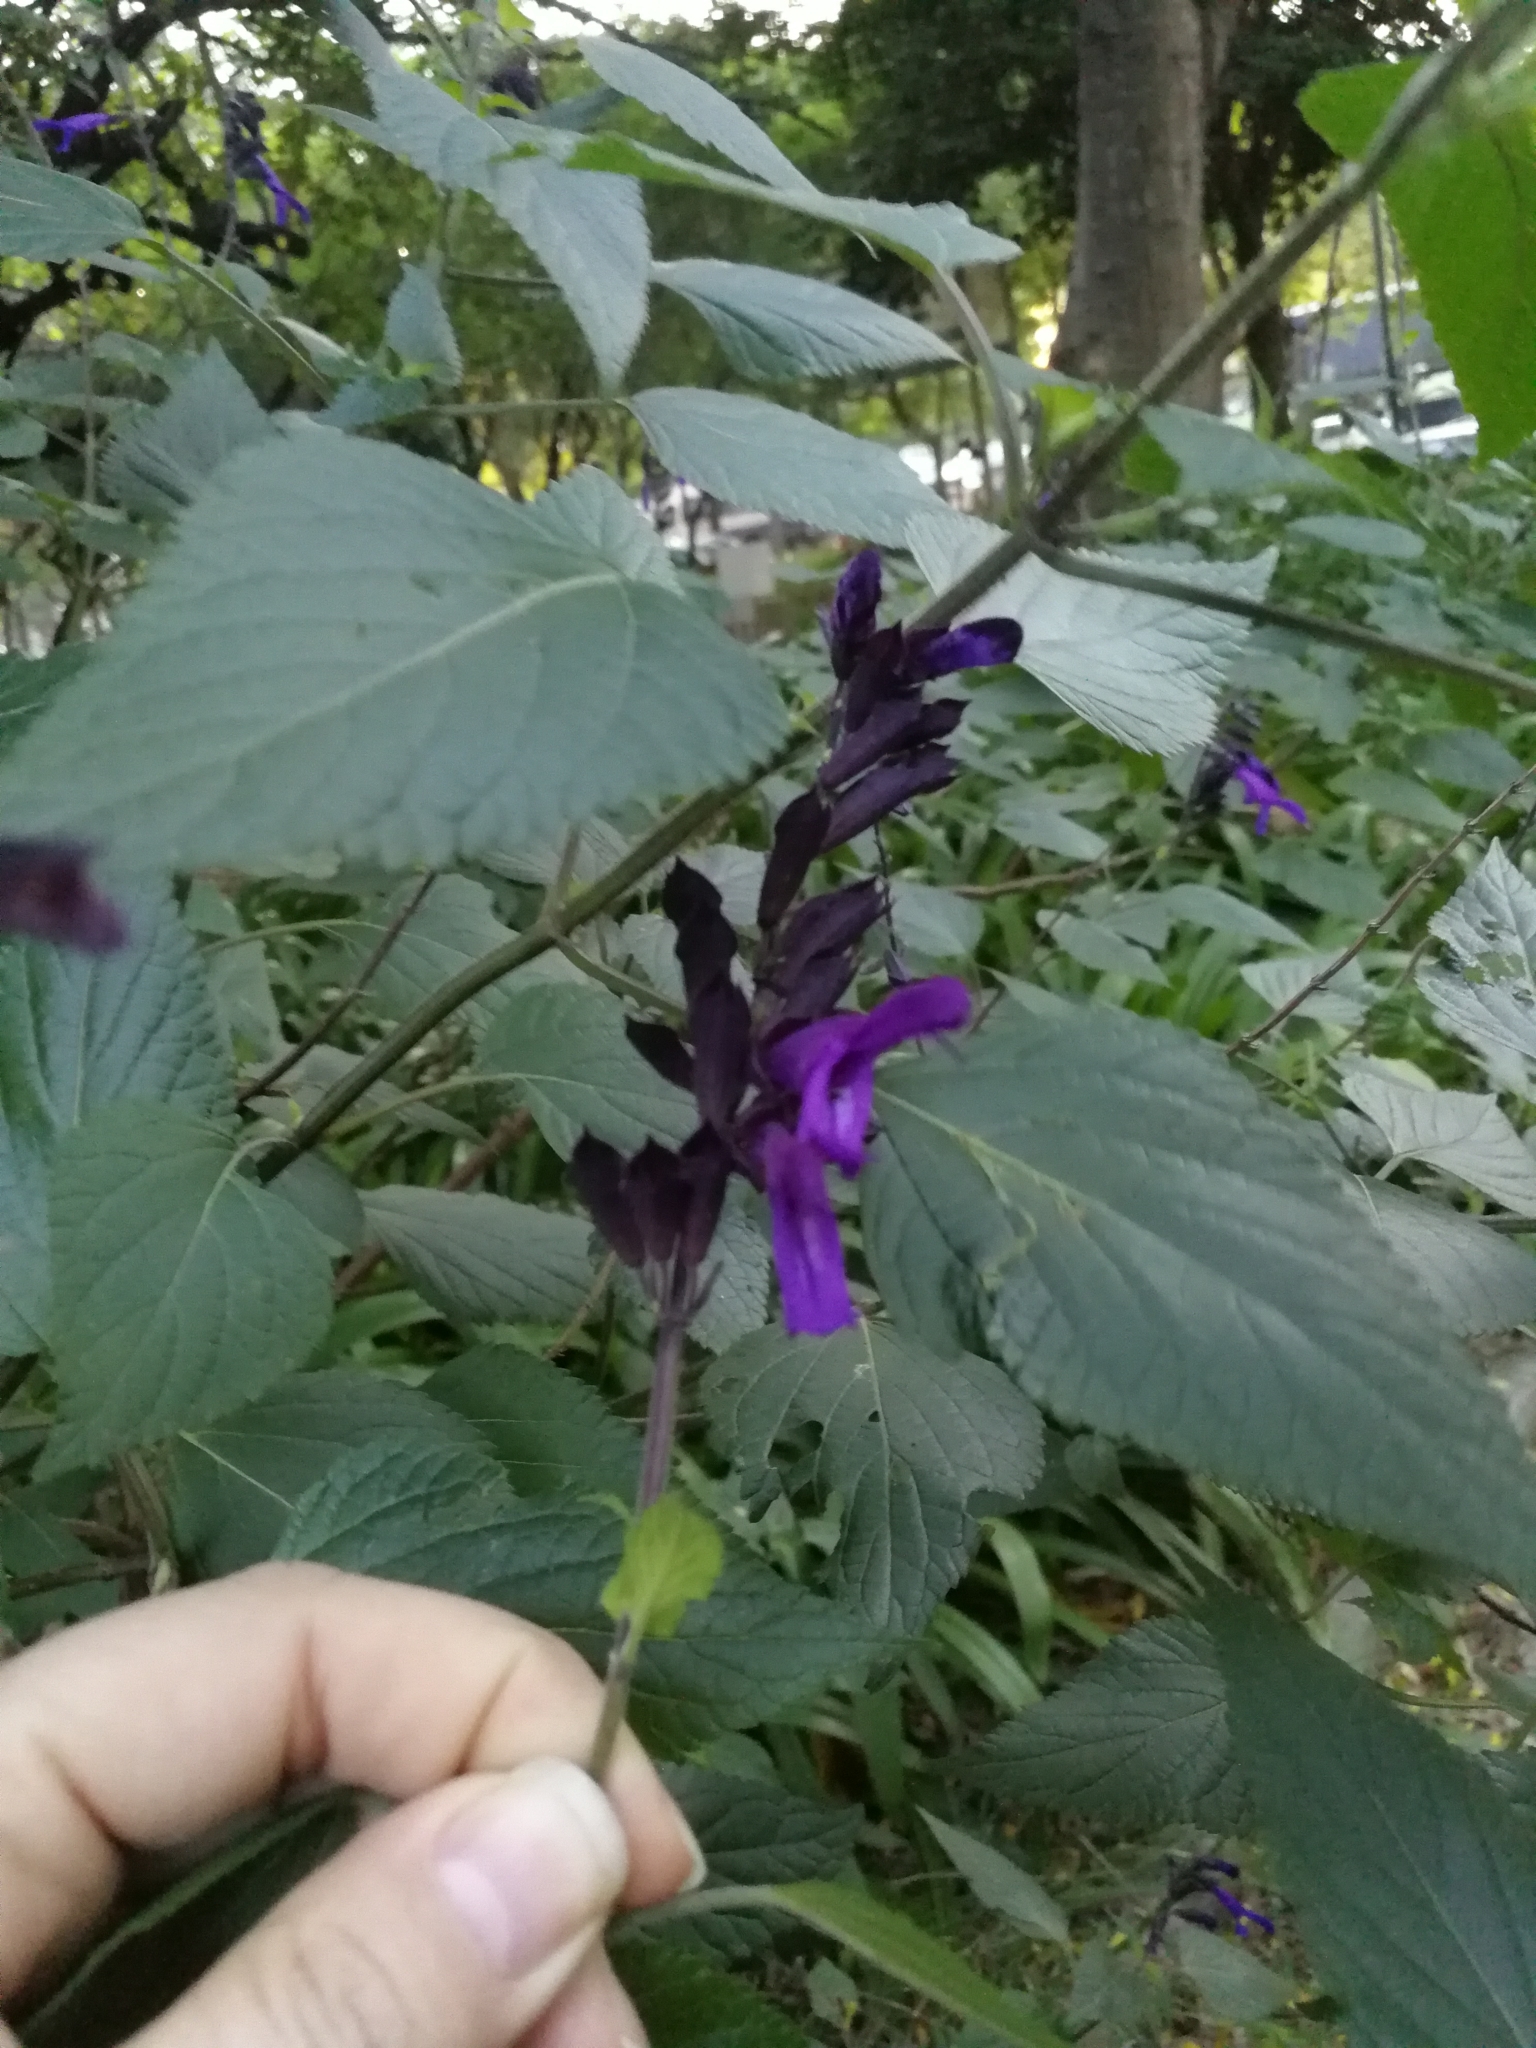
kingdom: Plantae
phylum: Tracheophyta
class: Magnoliopsida
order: Lamiales
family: Lamiaceae
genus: Salvia
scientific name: Salvia guaranitica
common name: Anise-scented sage
